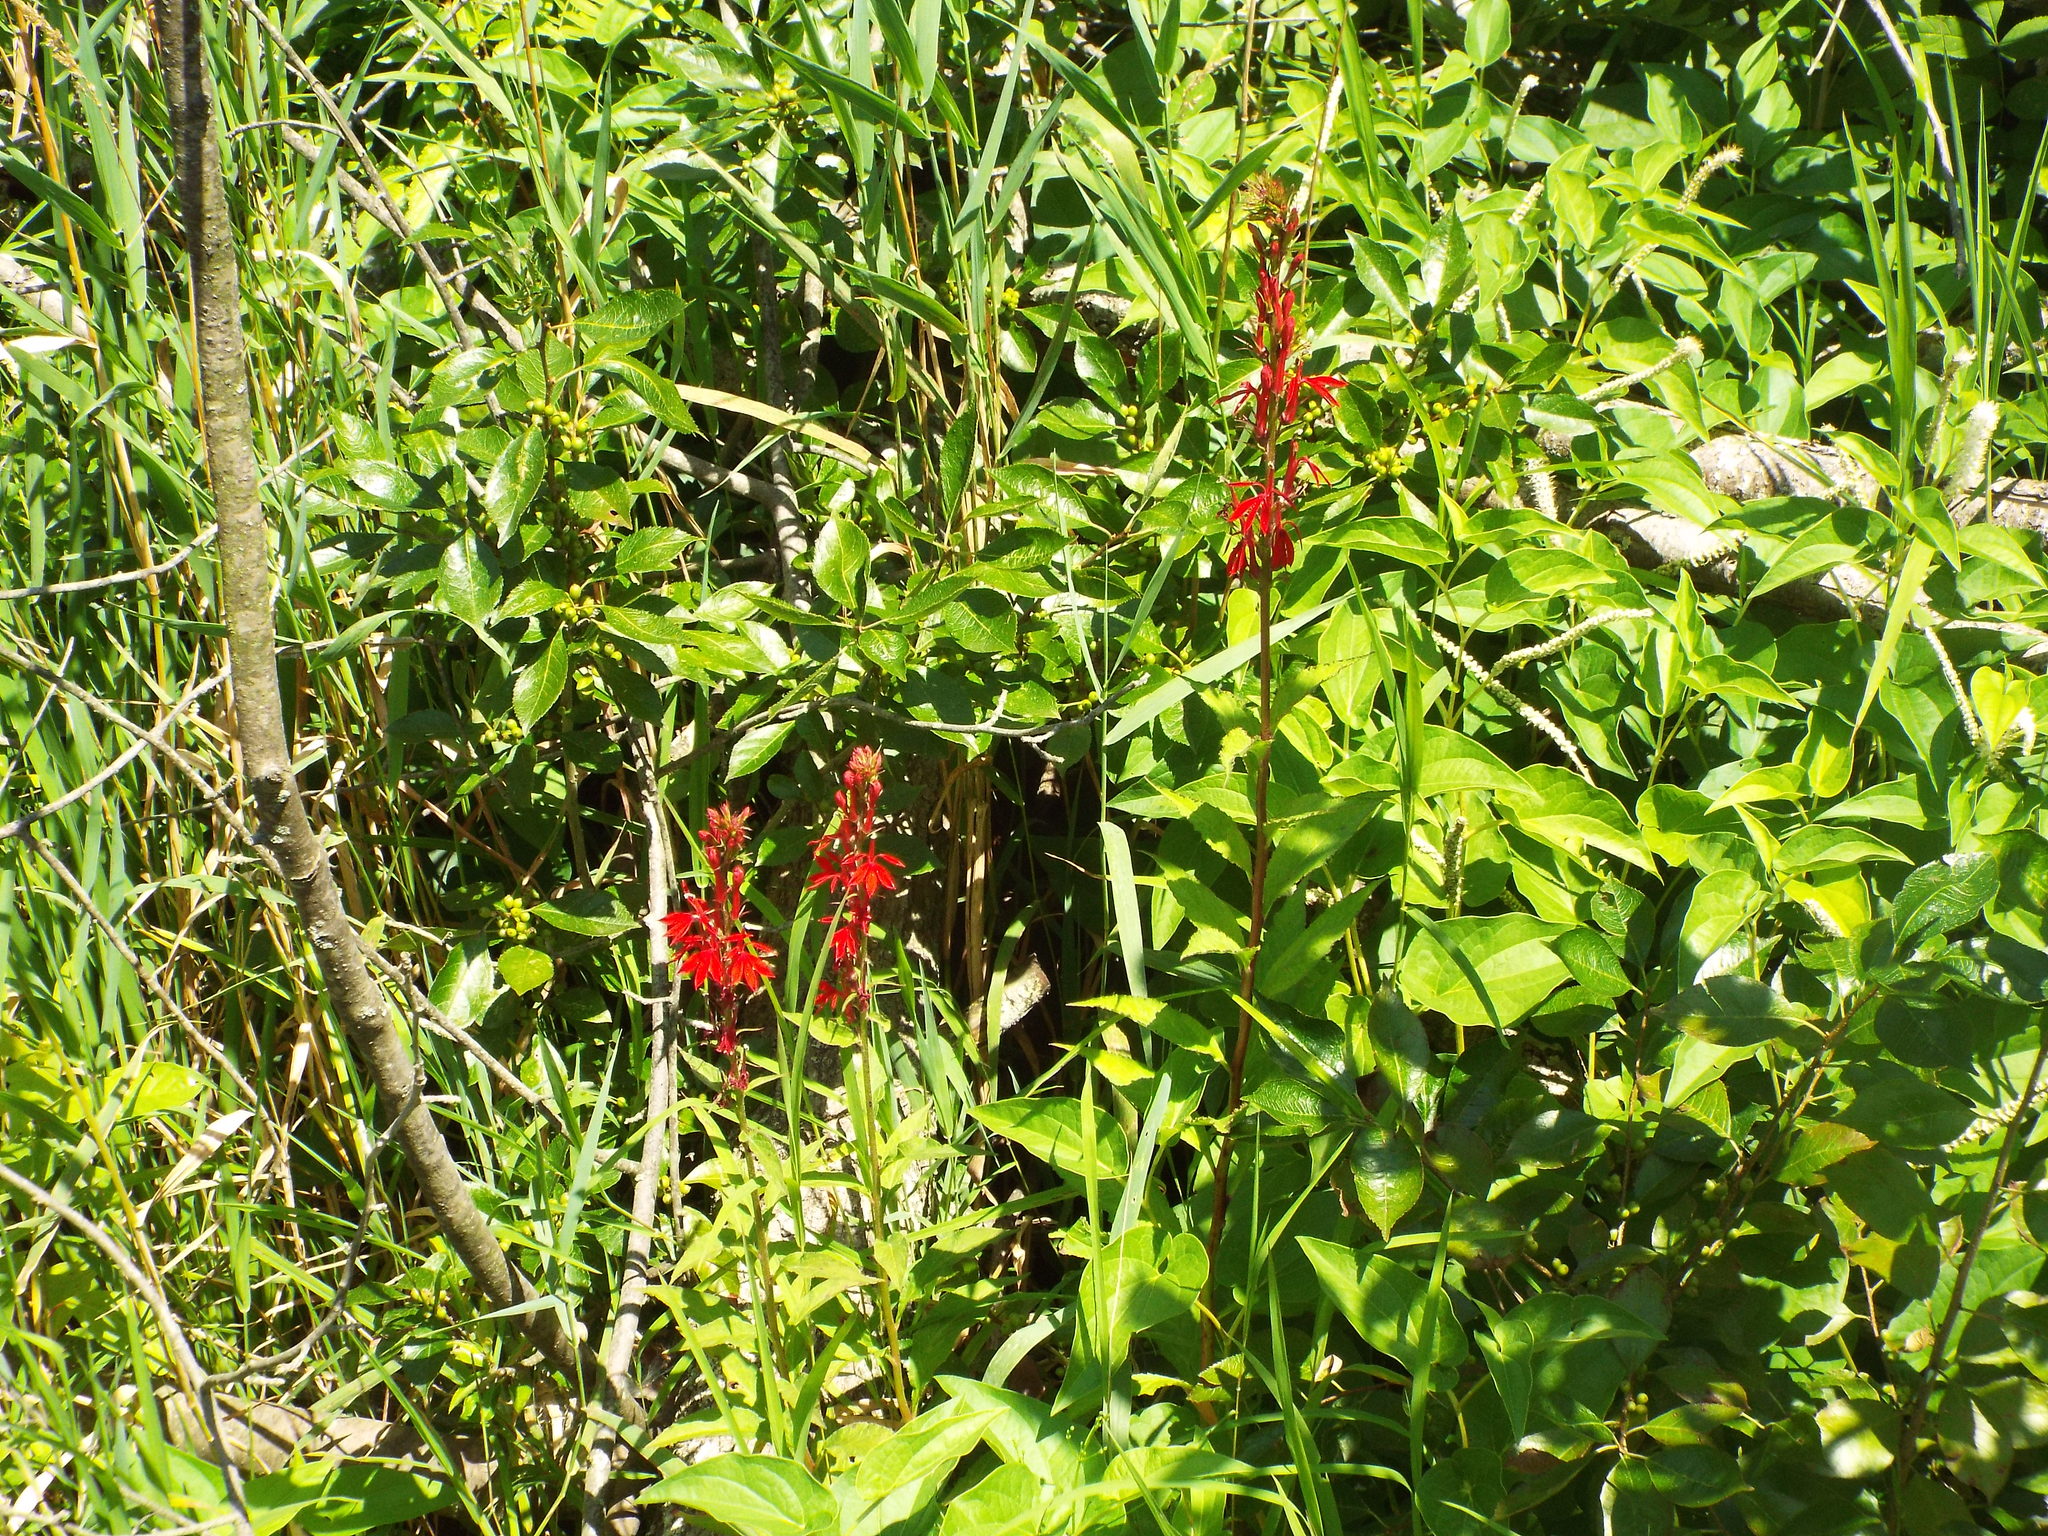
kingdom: Plantae
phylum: Tracheophyta
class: Magnoliopsida
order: Asterales
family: Campanulaceae
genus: Lobelia
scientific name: Lobelia cardinalis
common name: Cardinal flower
